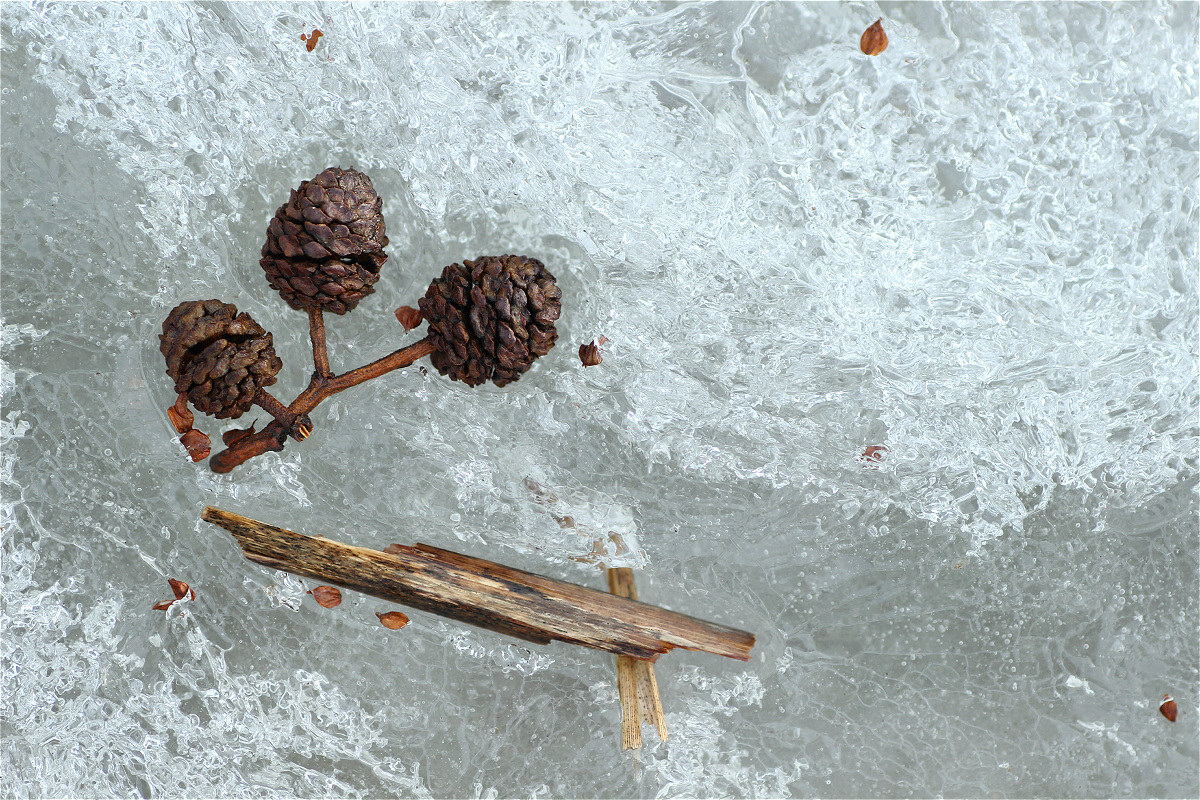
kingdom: Plantae
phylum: Tracheophyta
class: Magnoliopsida
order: Fagales
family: Betulaceae
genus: Alnus
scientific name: Alnus glutinosa
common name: Black alder
